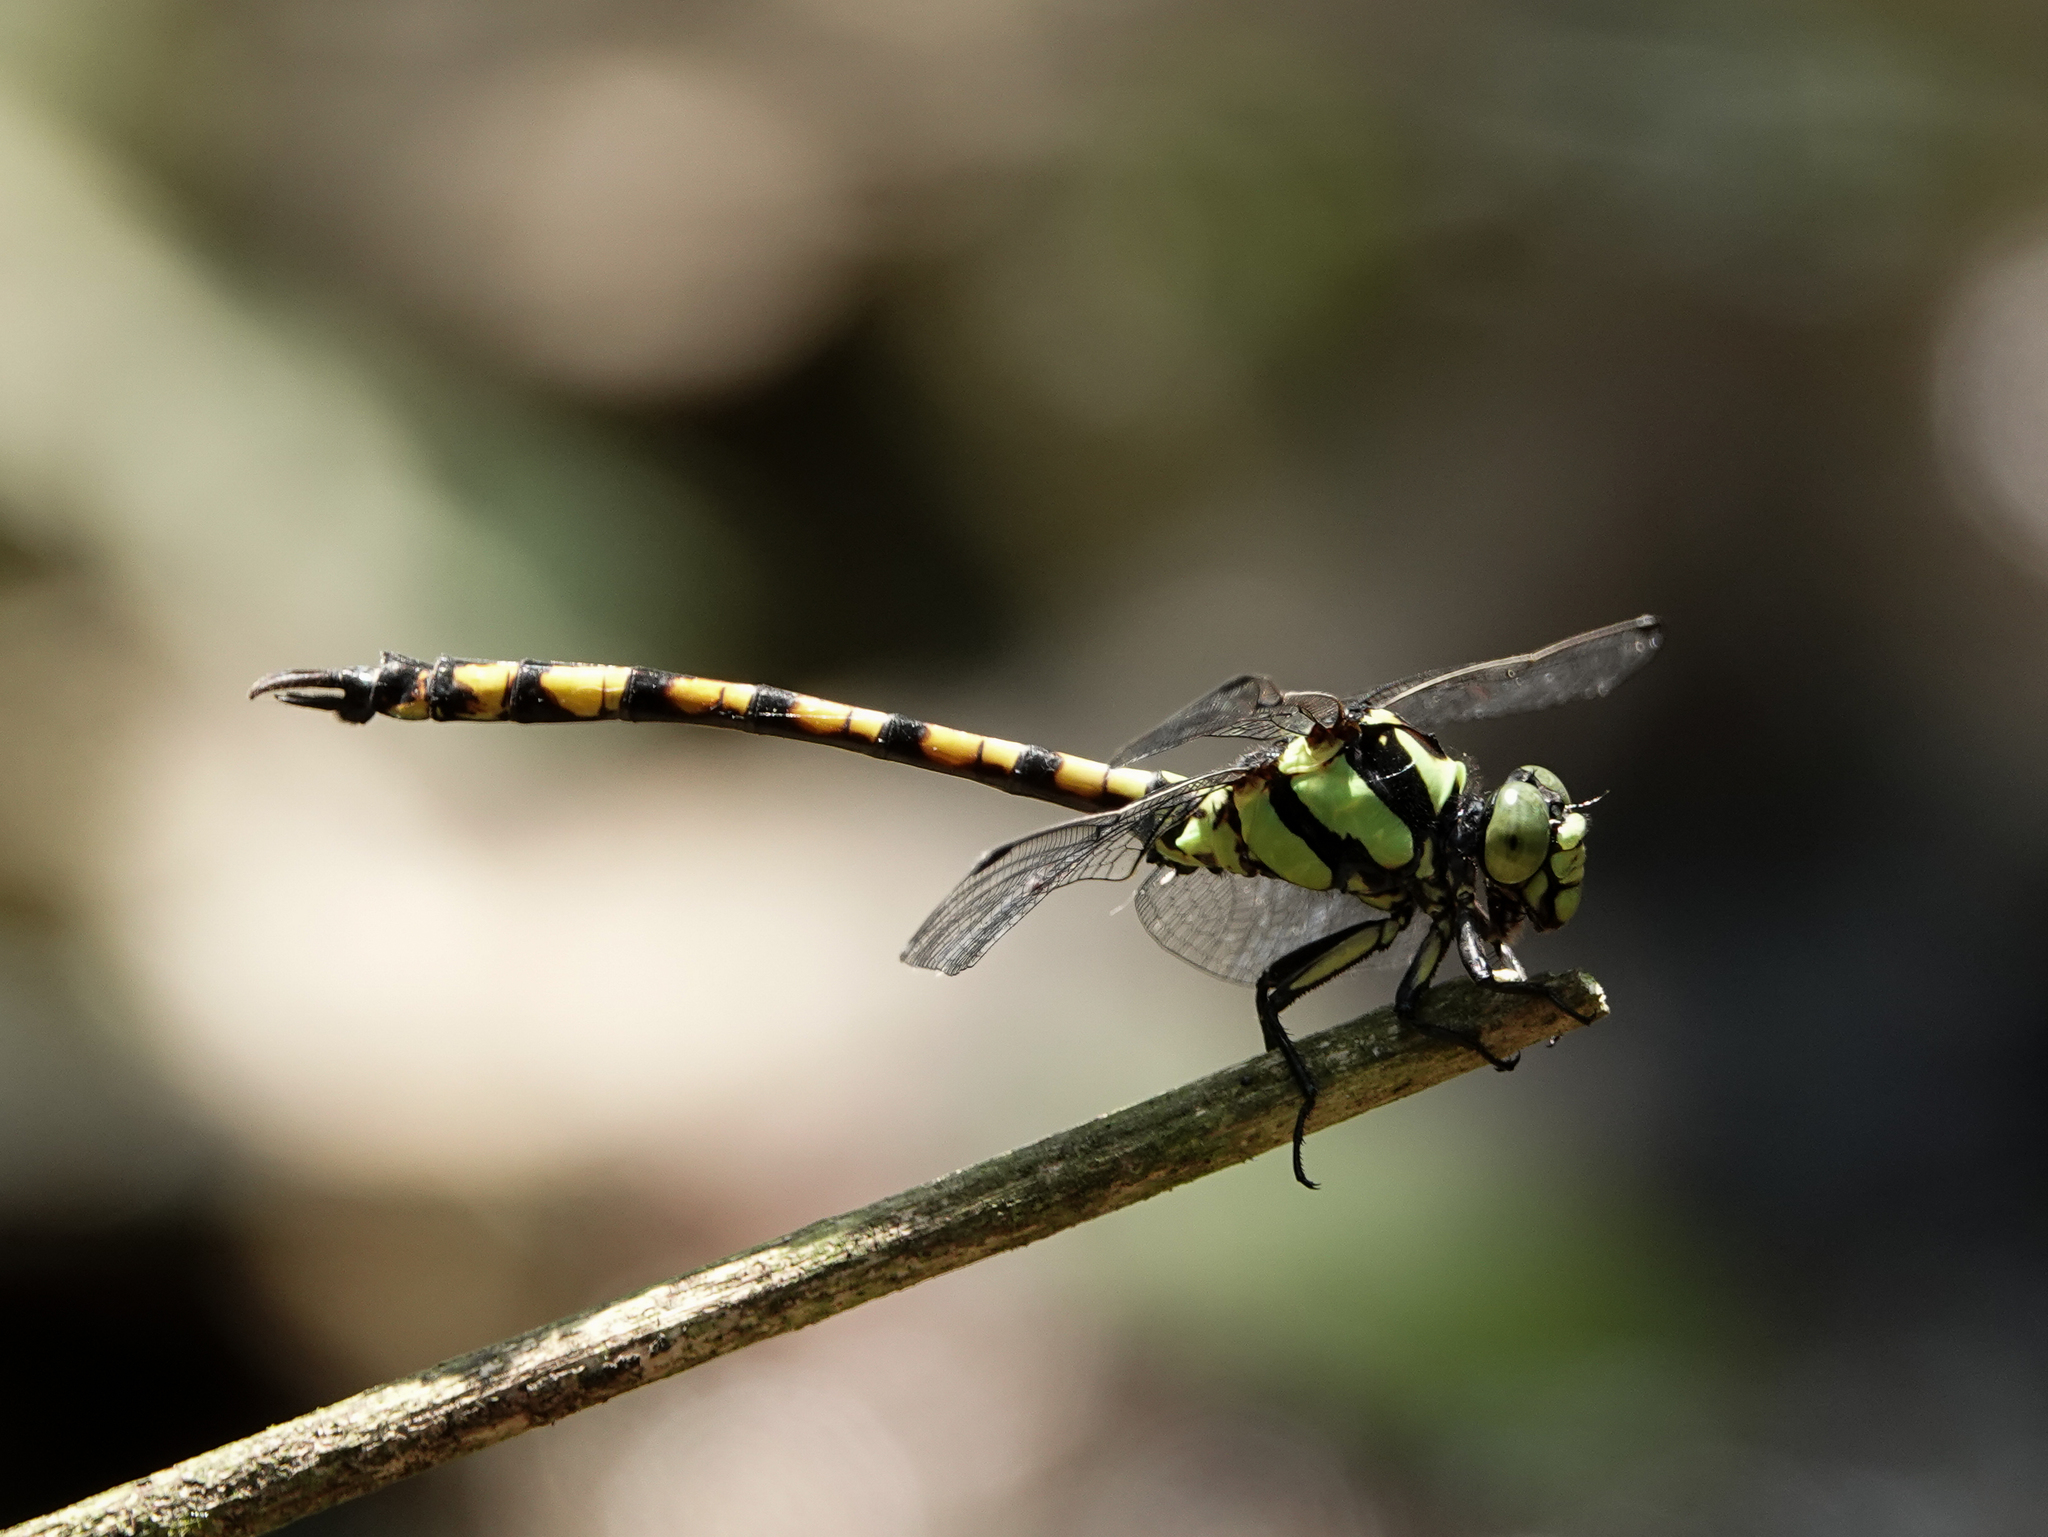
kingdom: Animalia
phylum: Arthropoda
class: Insecta
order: Odonata
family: Gomphidae
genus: Megalogomphus
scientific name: Megalogomphus smithii
